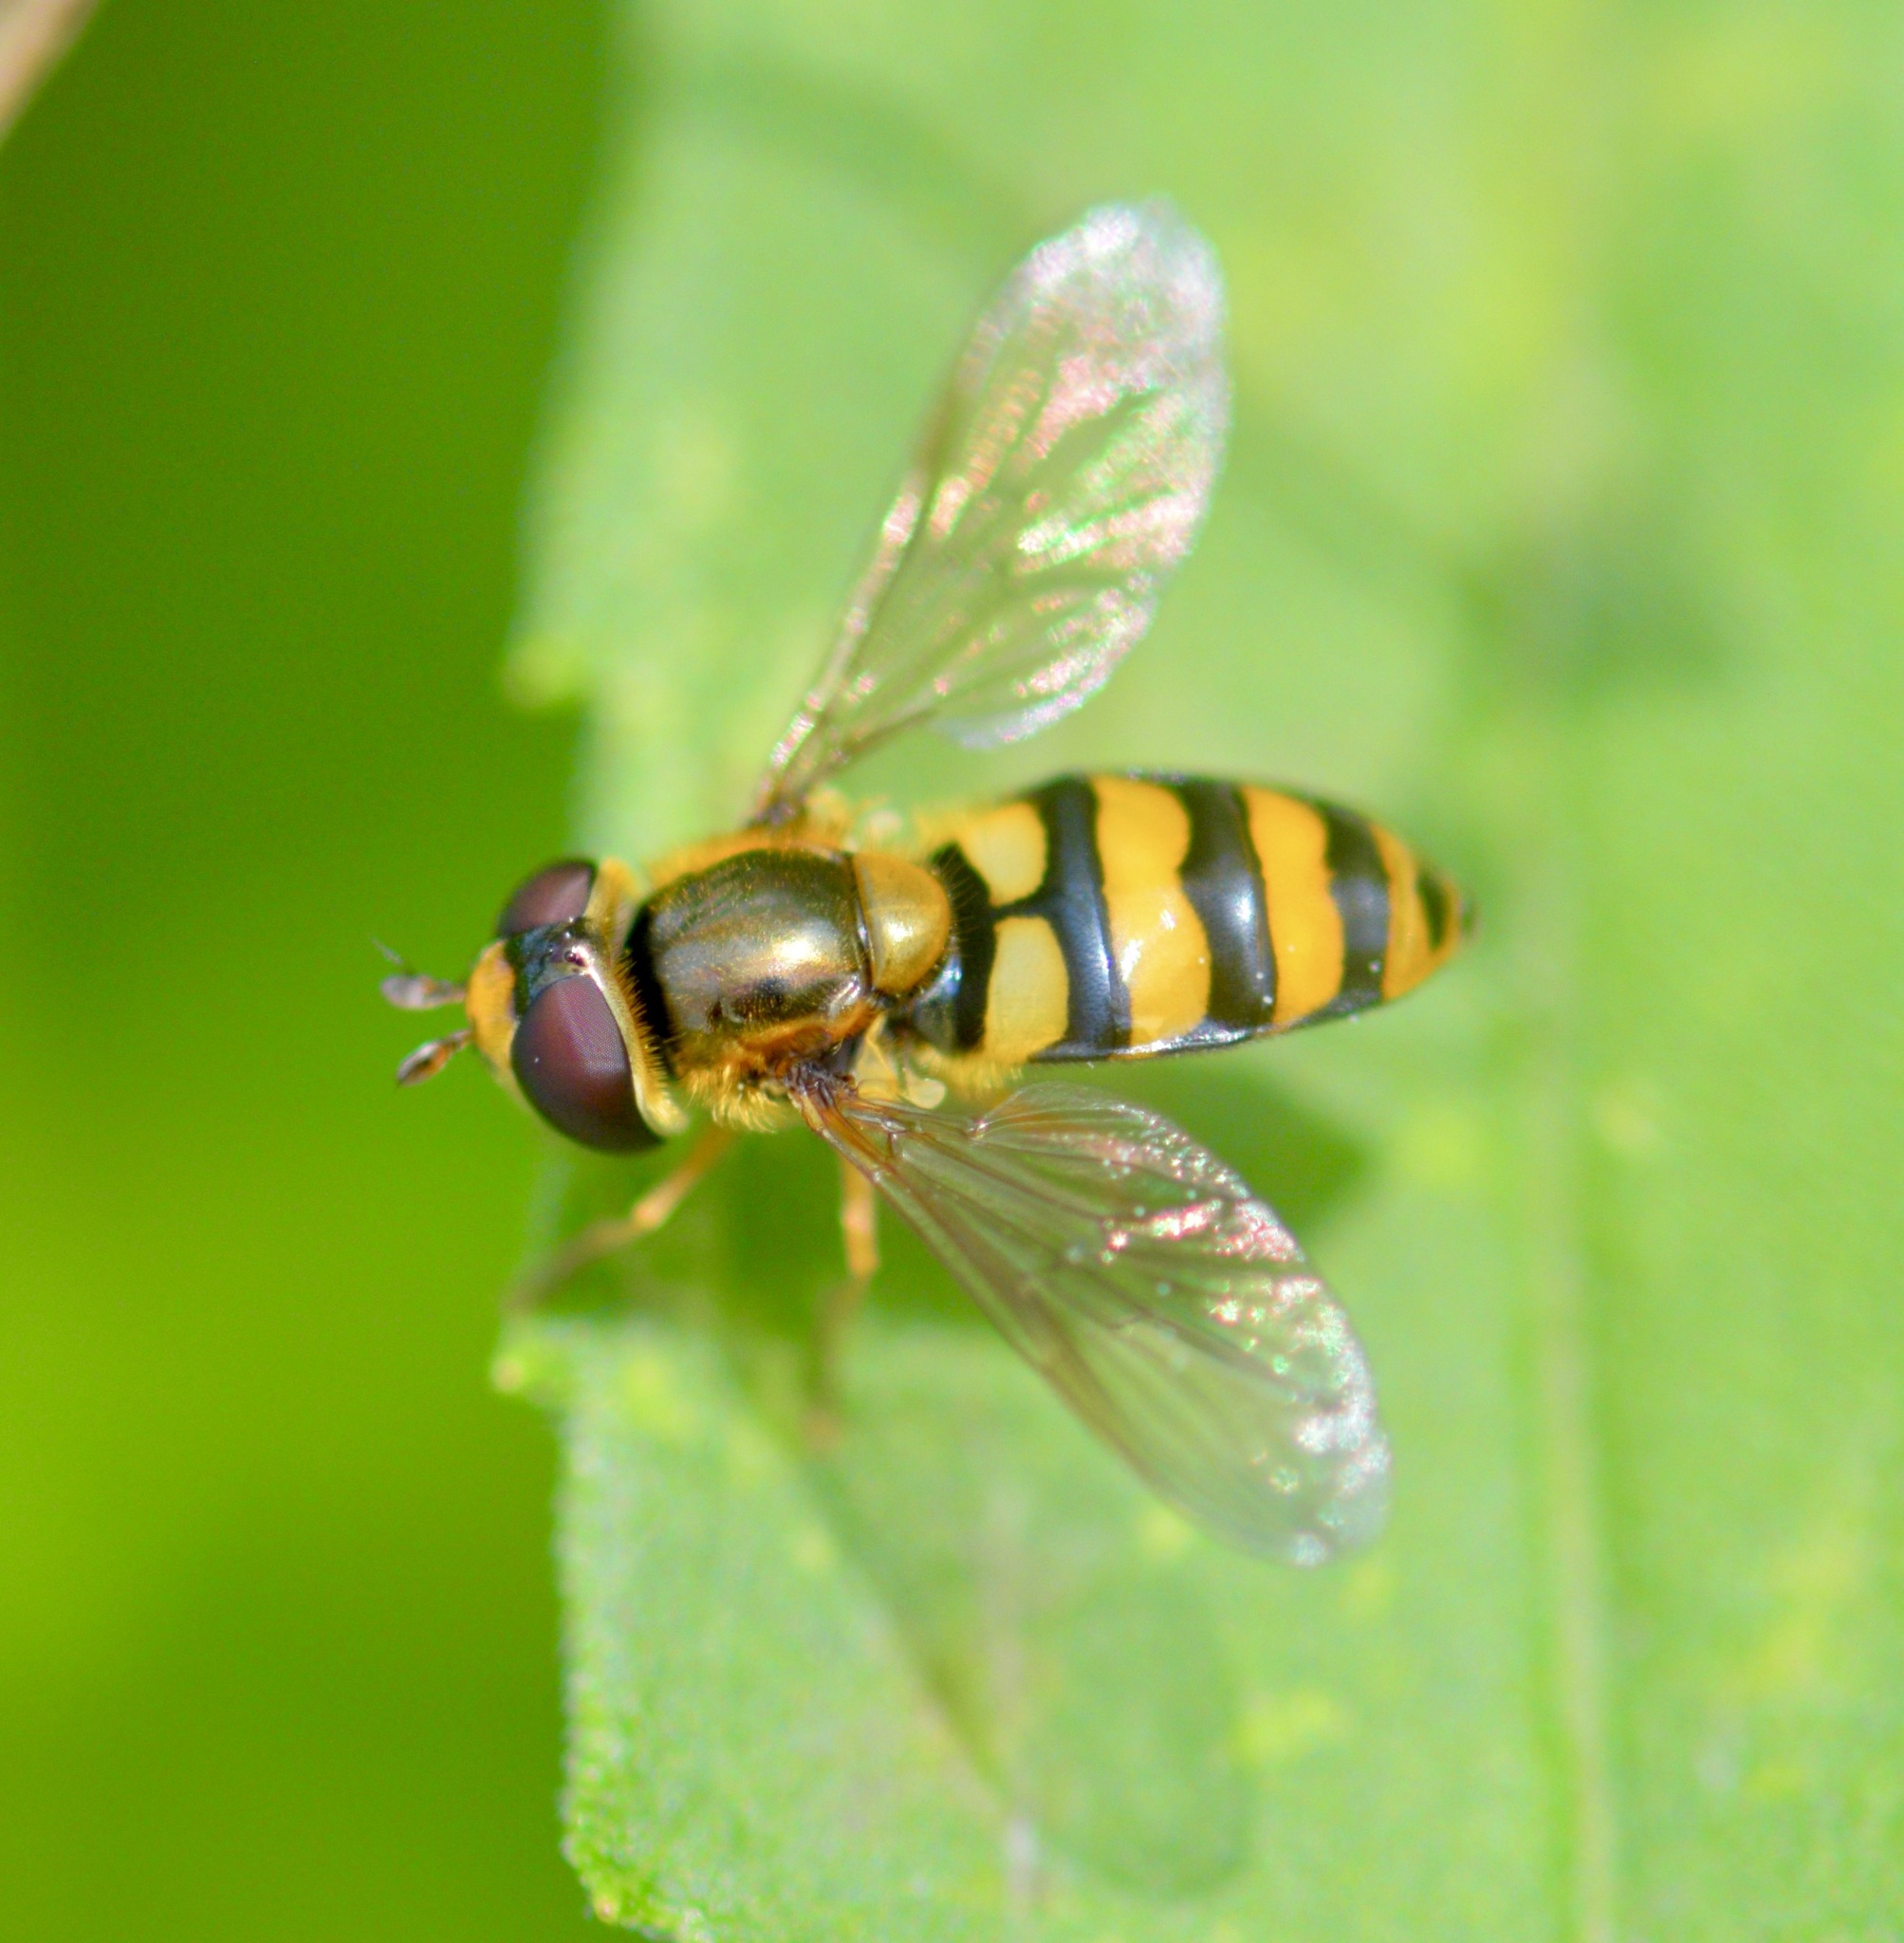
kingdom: Animalia
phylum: Arthropoda
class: Insecta
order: Diptera
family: Syrphidae
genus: Eupeodes
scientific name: Eupeodes latifasciatus
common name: Variable aphideater
